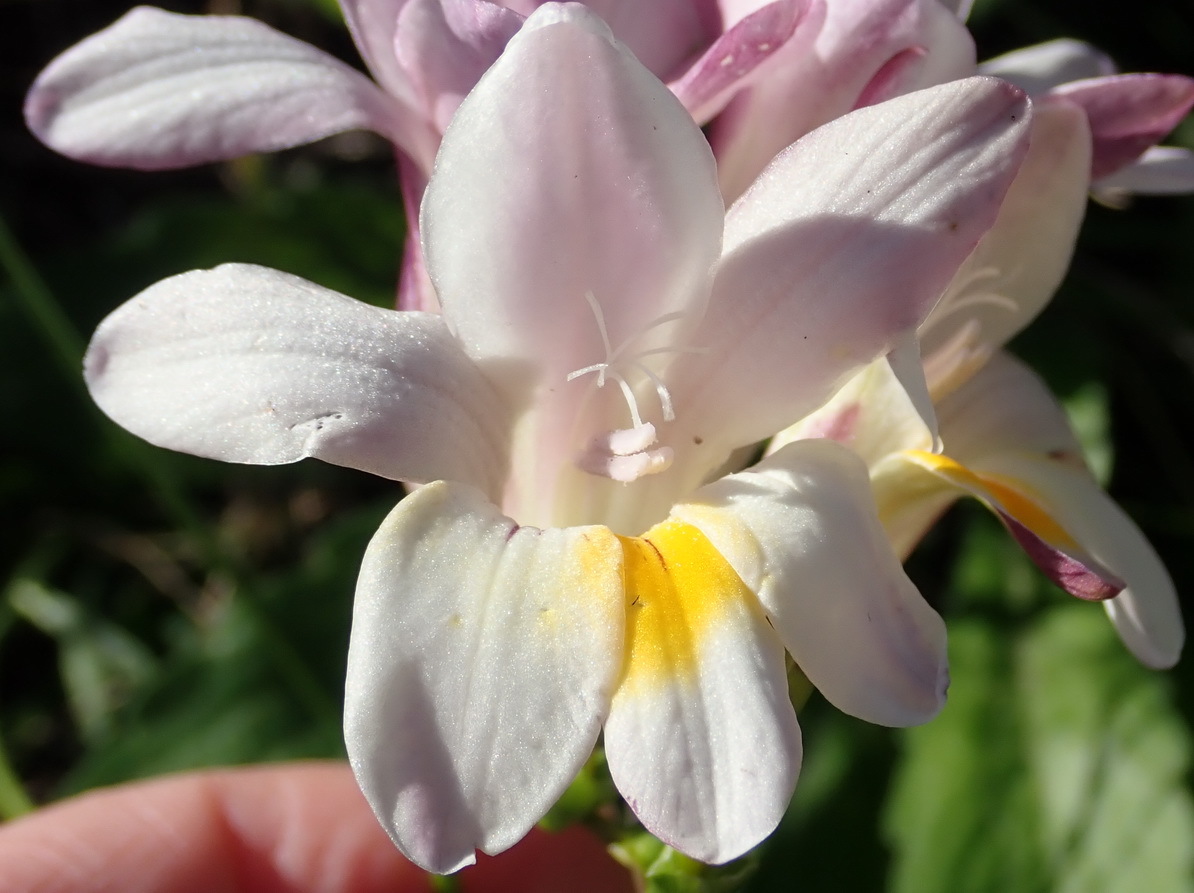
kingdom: Plantae
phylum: Tracheophyta
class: Liliopsida
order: Asparagales
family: Iridaceae
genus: Freesia
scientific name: Freesia leichtlinii
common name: Freesia
